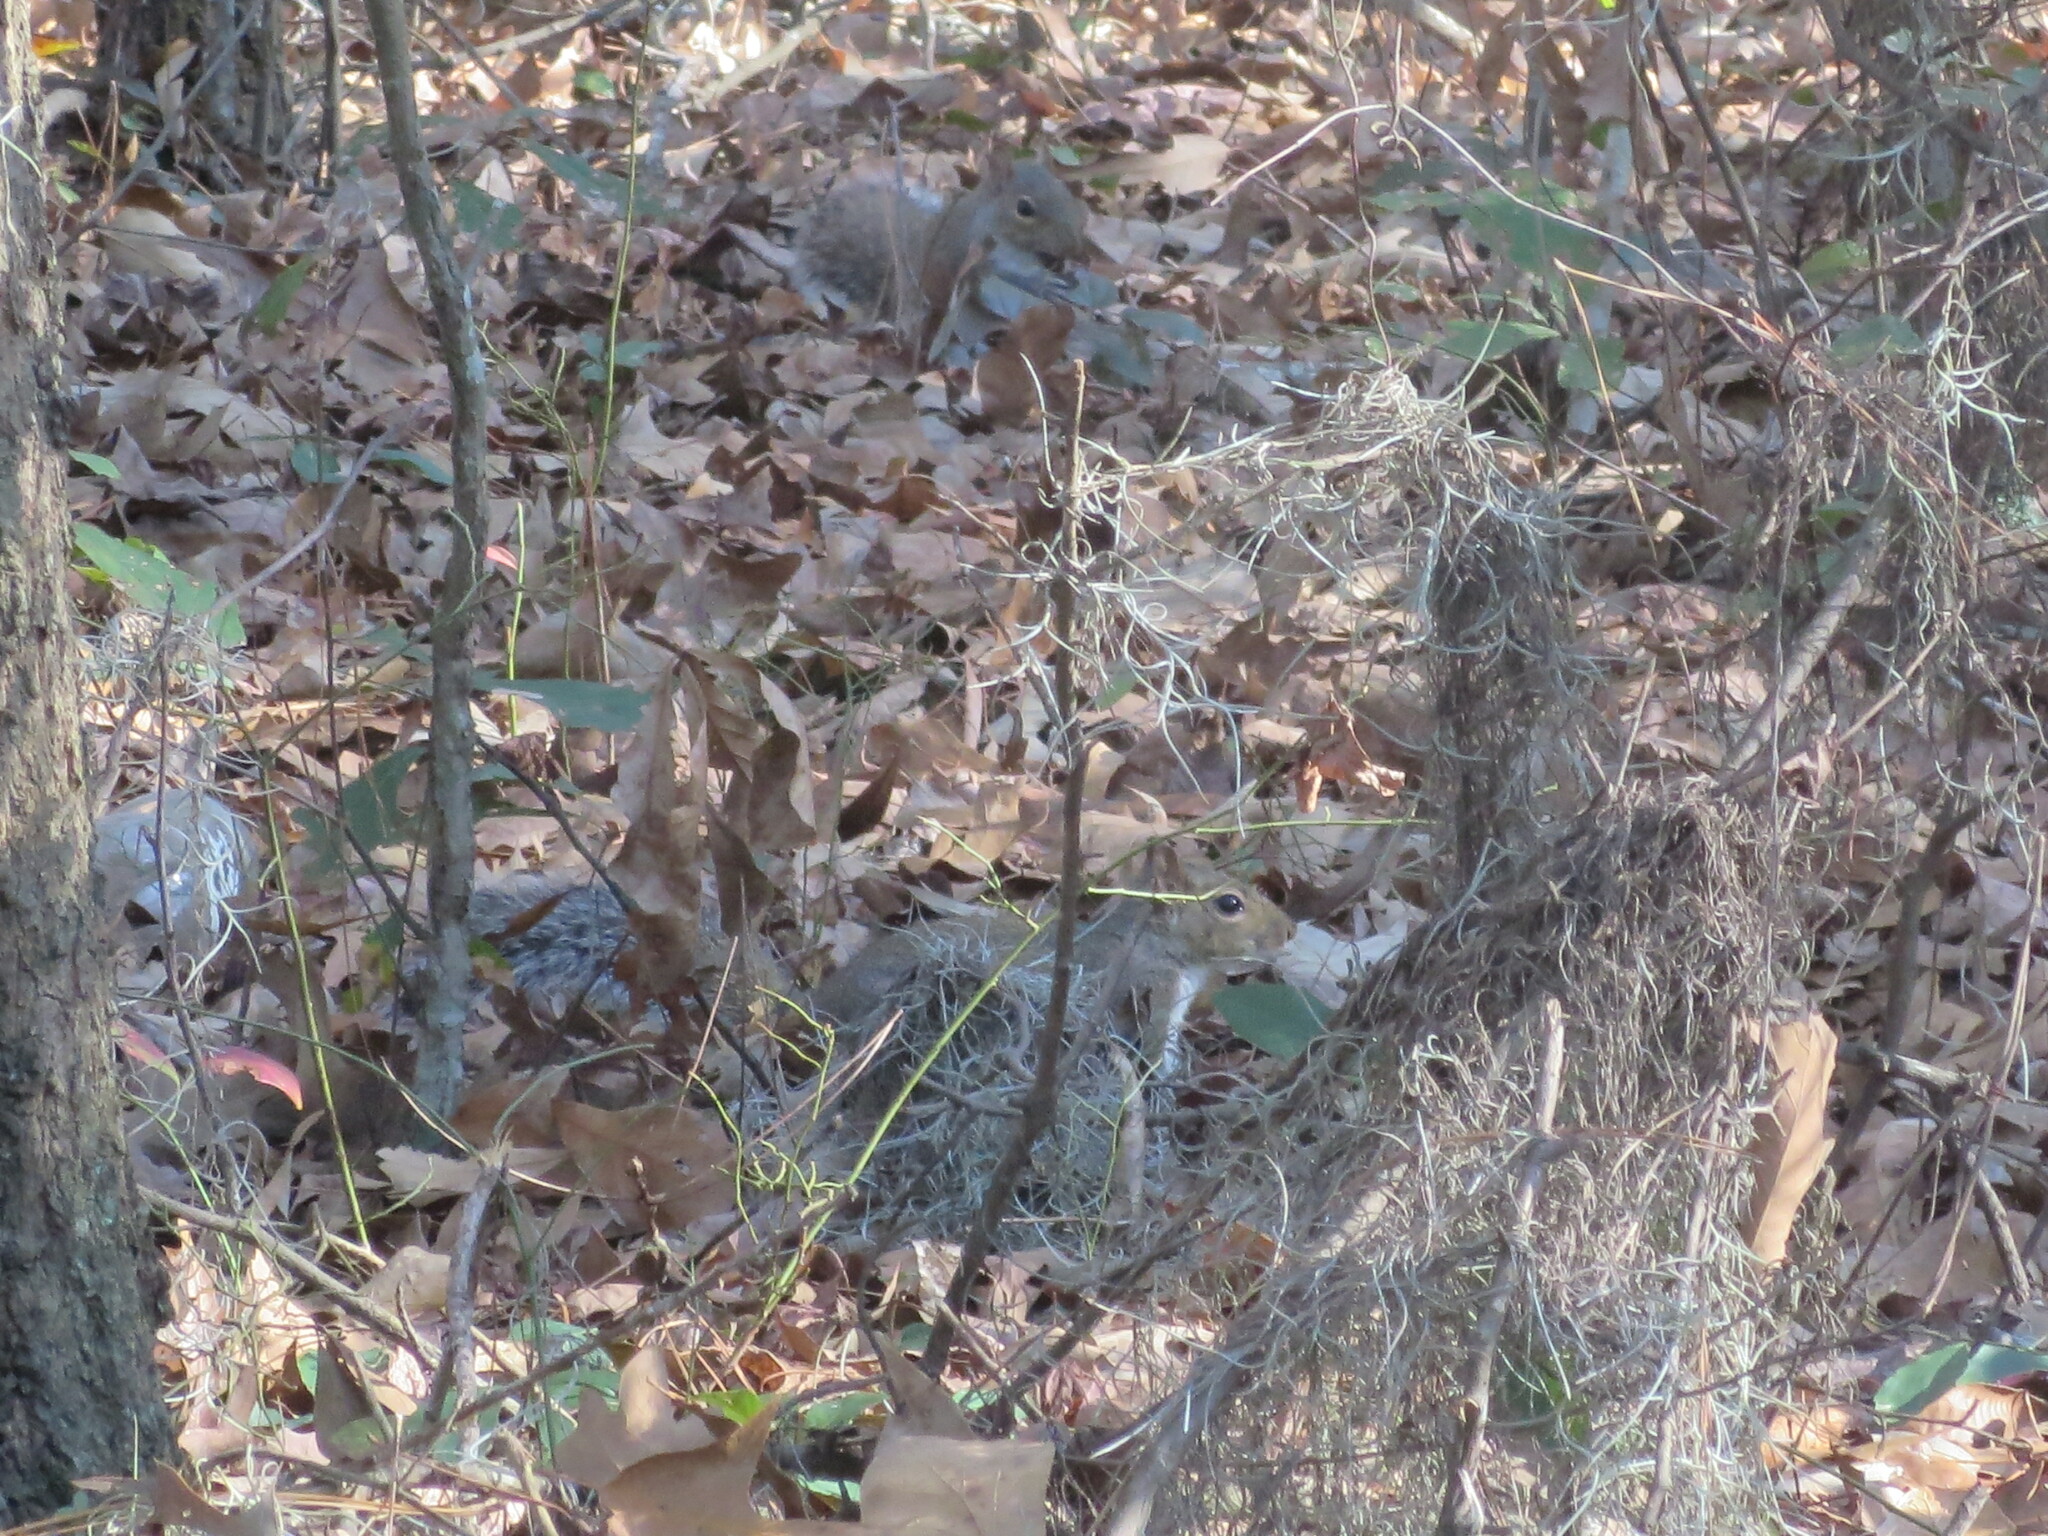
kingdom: Animalia
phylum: Chordata
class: Mammalia
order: Rodentia
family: Sciuridae
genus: Sciurus
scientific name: Sciurus carolinensis
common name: Eastern gray squirrel
